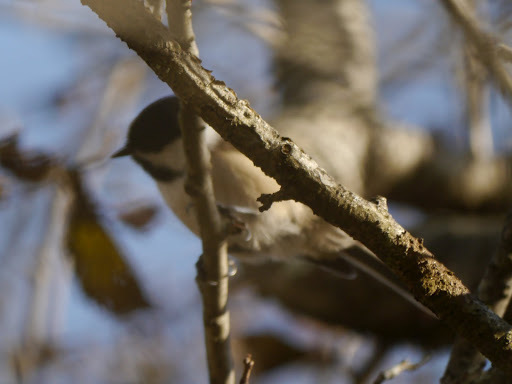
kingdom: Animalia
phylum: Chordata
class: Aves
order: Passeriformes
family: Paridae
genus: Poecile
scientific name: Poecile atricapillus
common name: Black-capped chickadee
